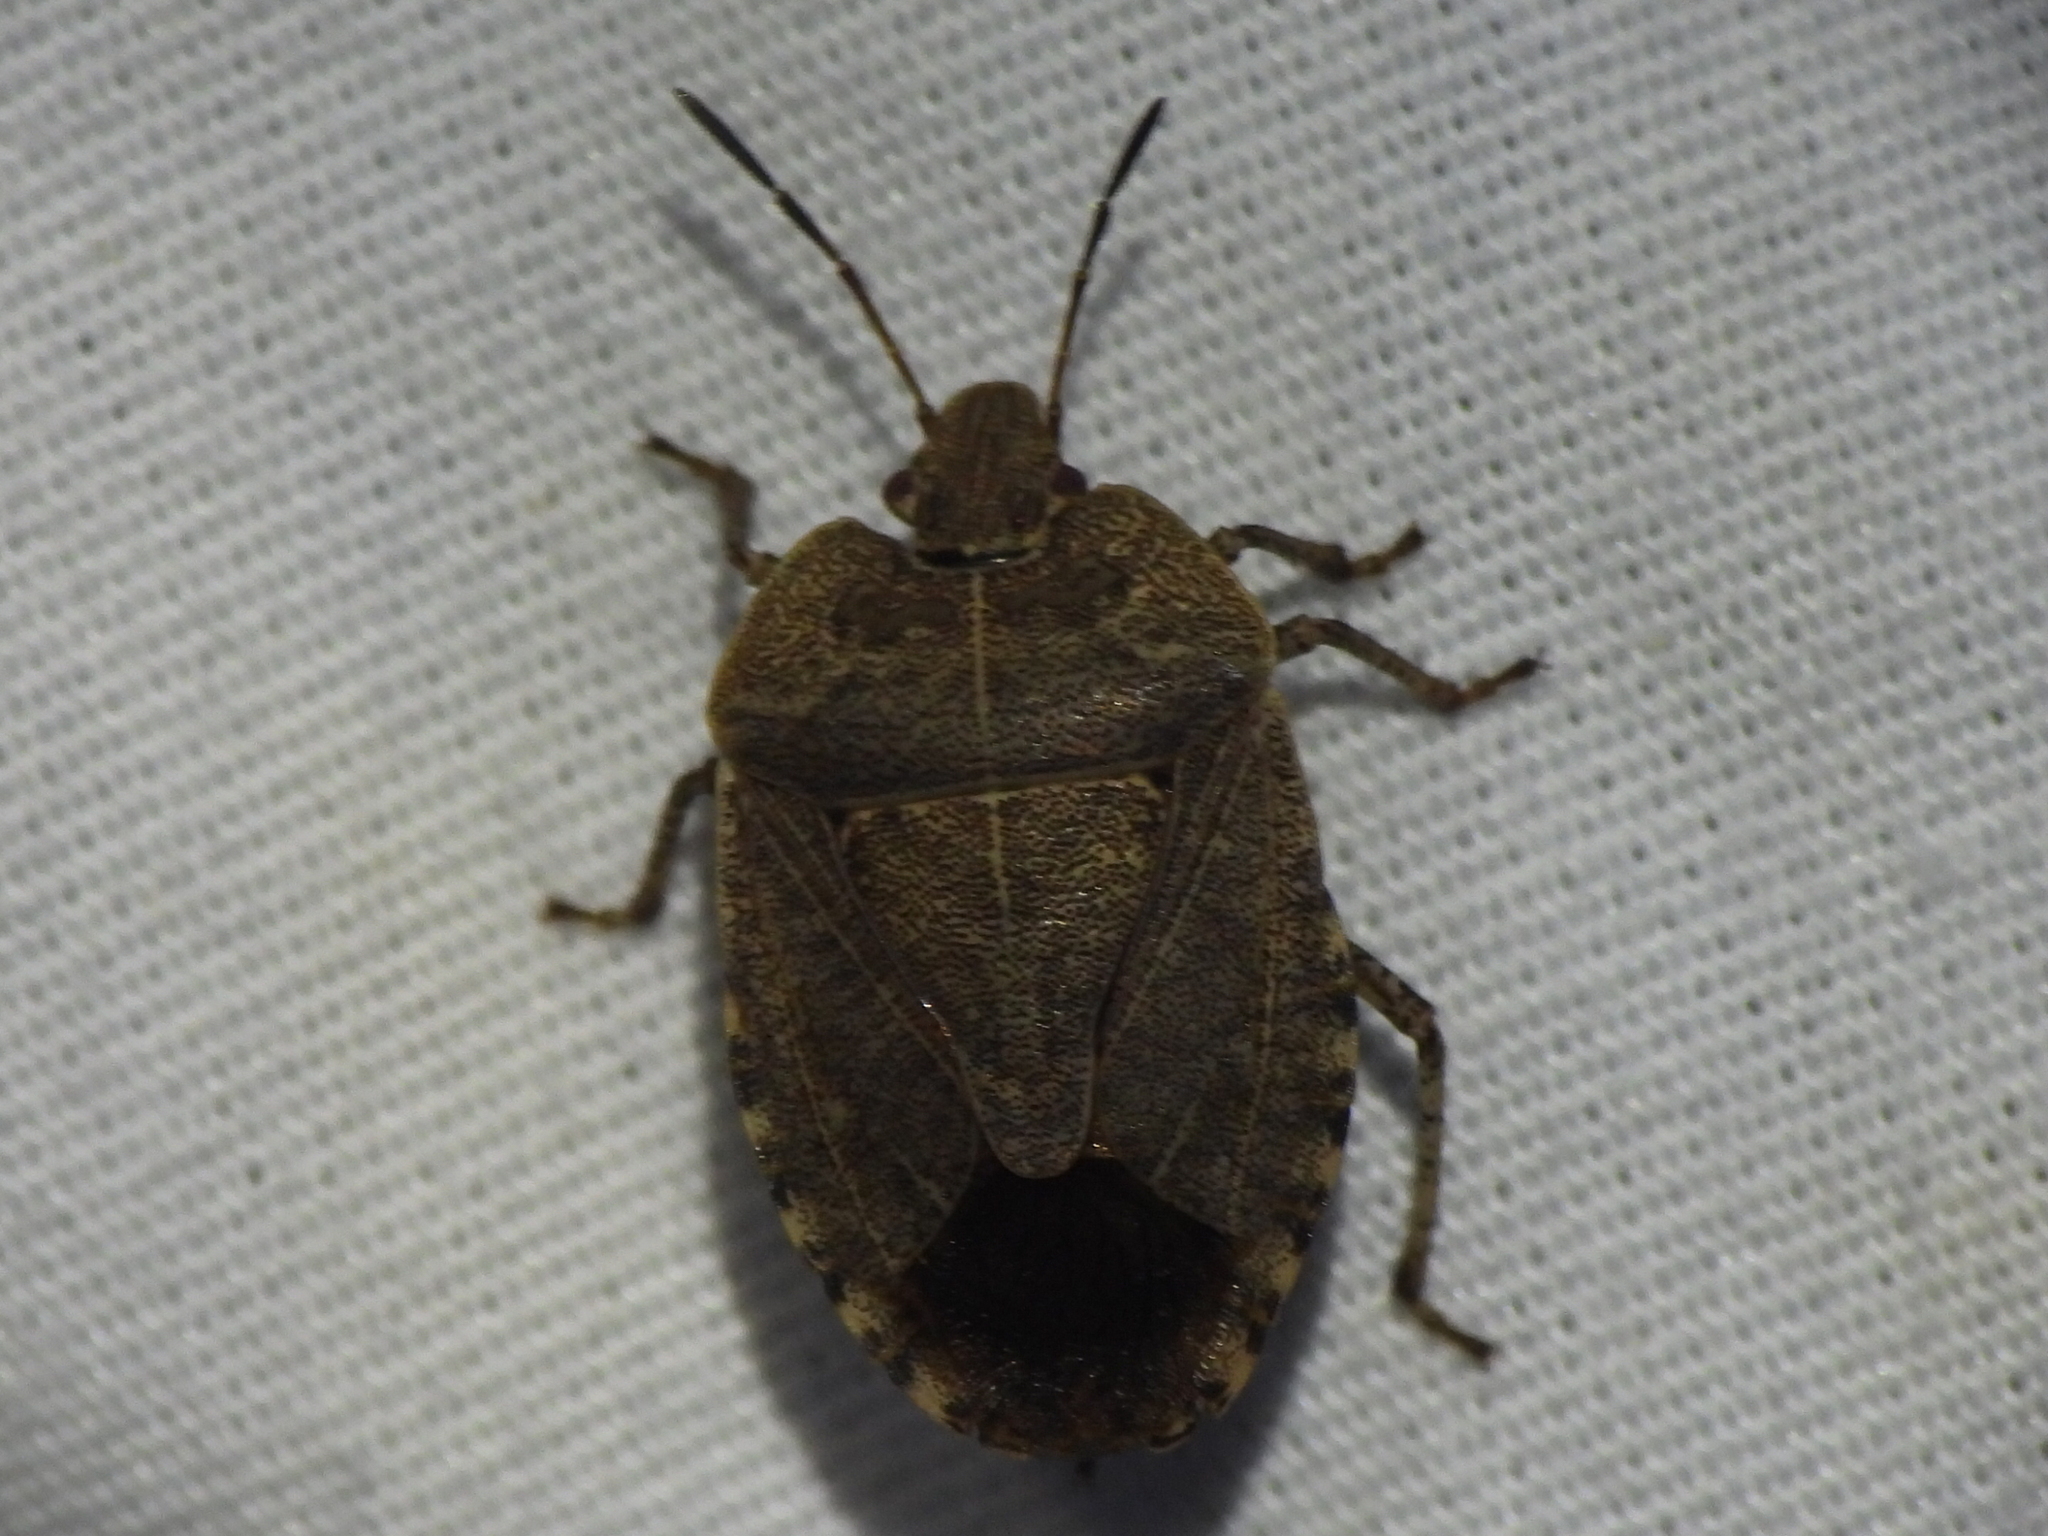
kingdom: Animalia
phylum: Arthropoda
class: Insecta
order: Hemiptera
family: Pentatomidae
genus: Menecles
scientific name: Menecles insertus
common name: Elf shoe stink bug
